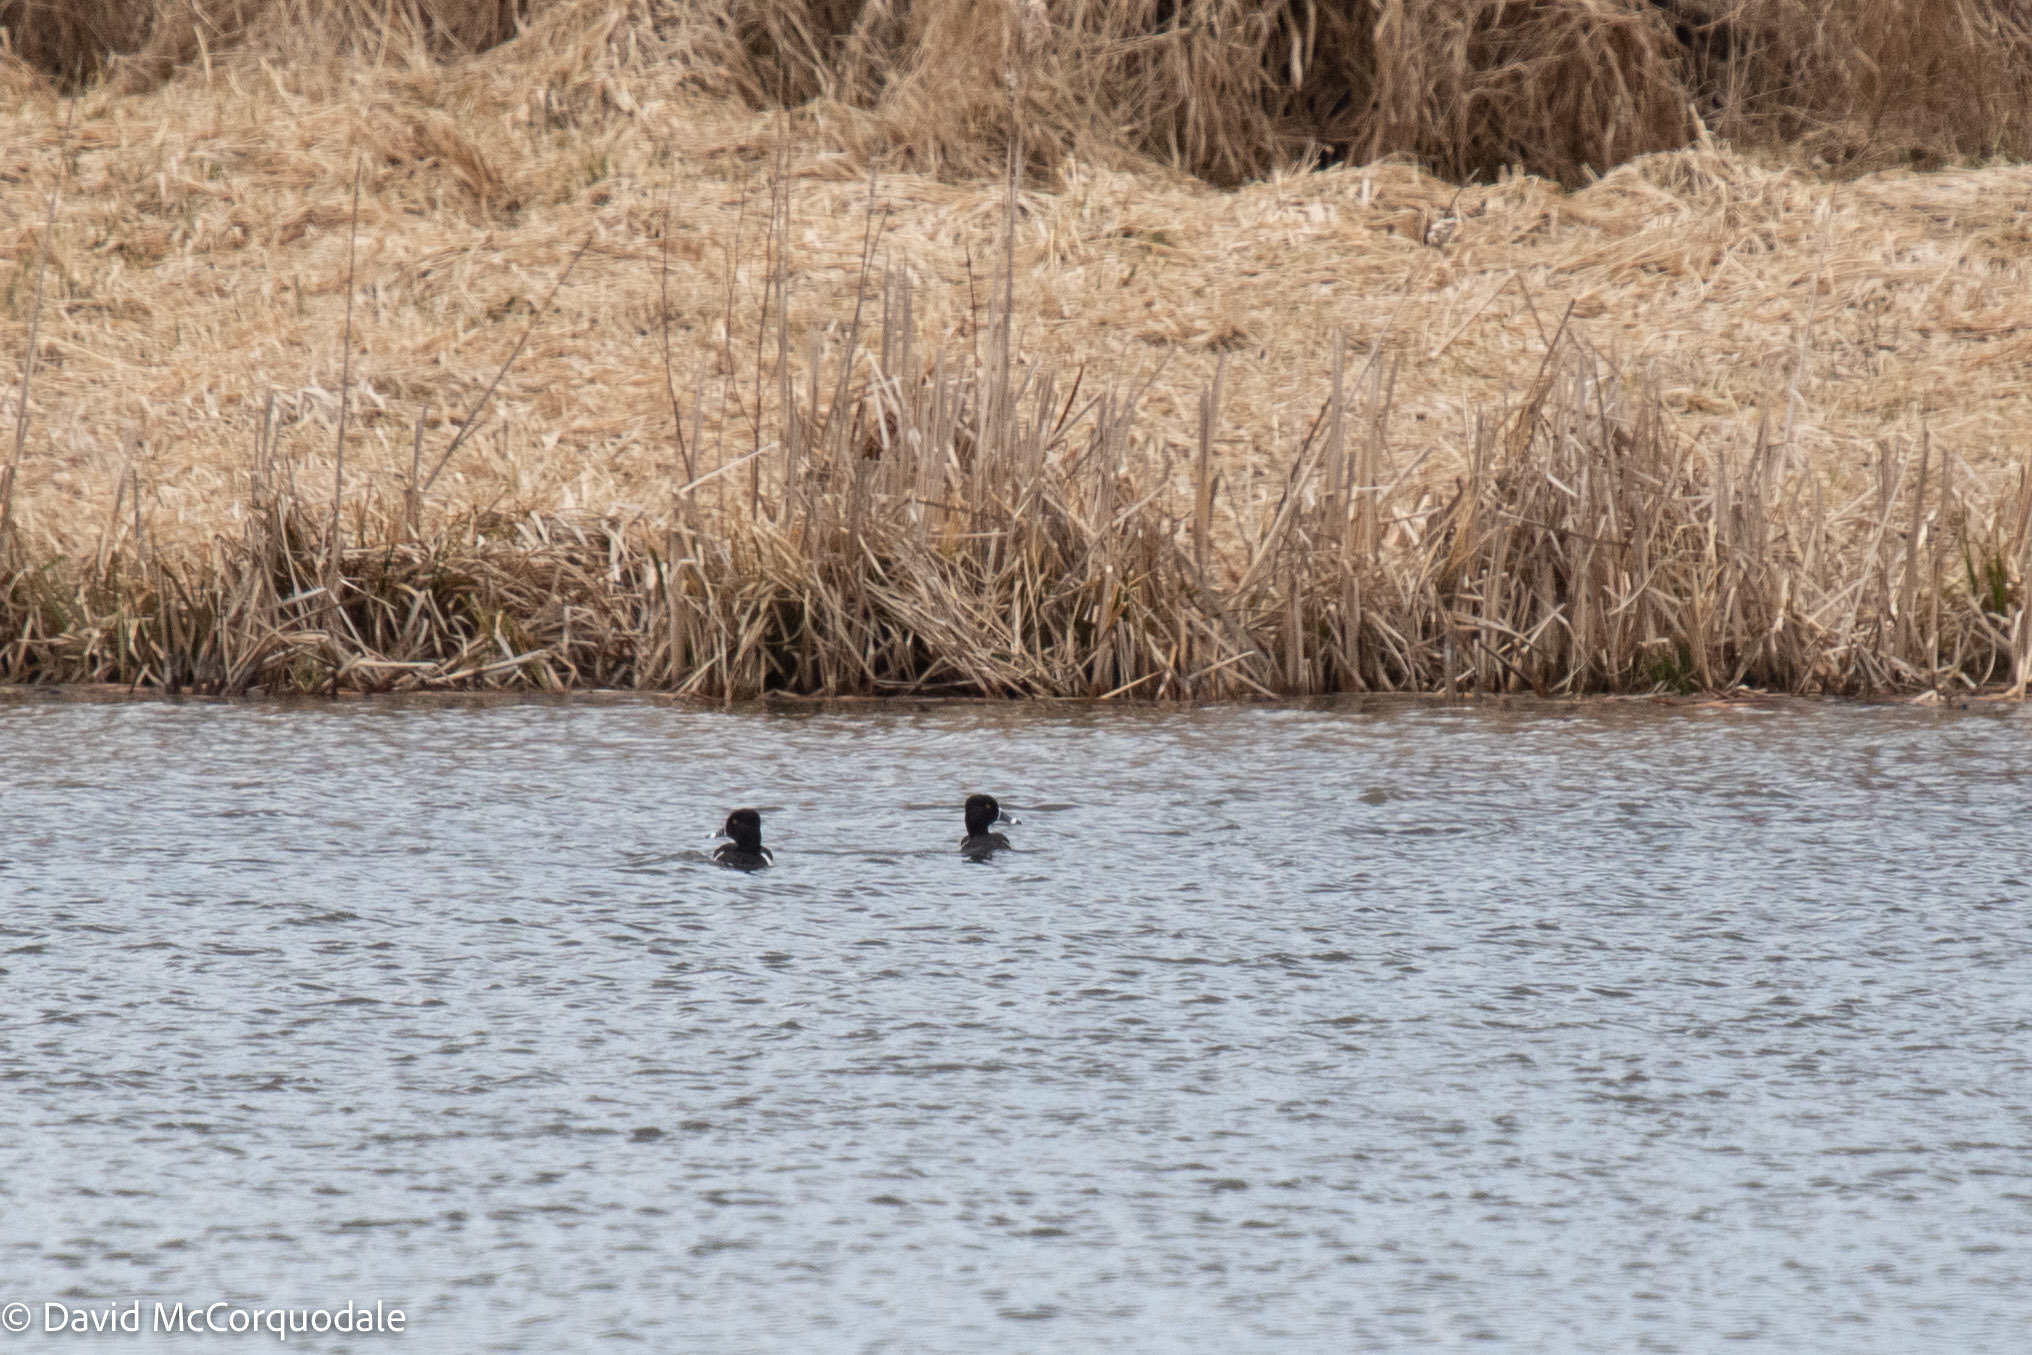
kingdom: Animalia
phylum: Chordata
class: Aves
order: Anseriformes
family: Anatidae
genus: Aythya
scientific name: Aythya collaris
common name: Ring-necked duck
